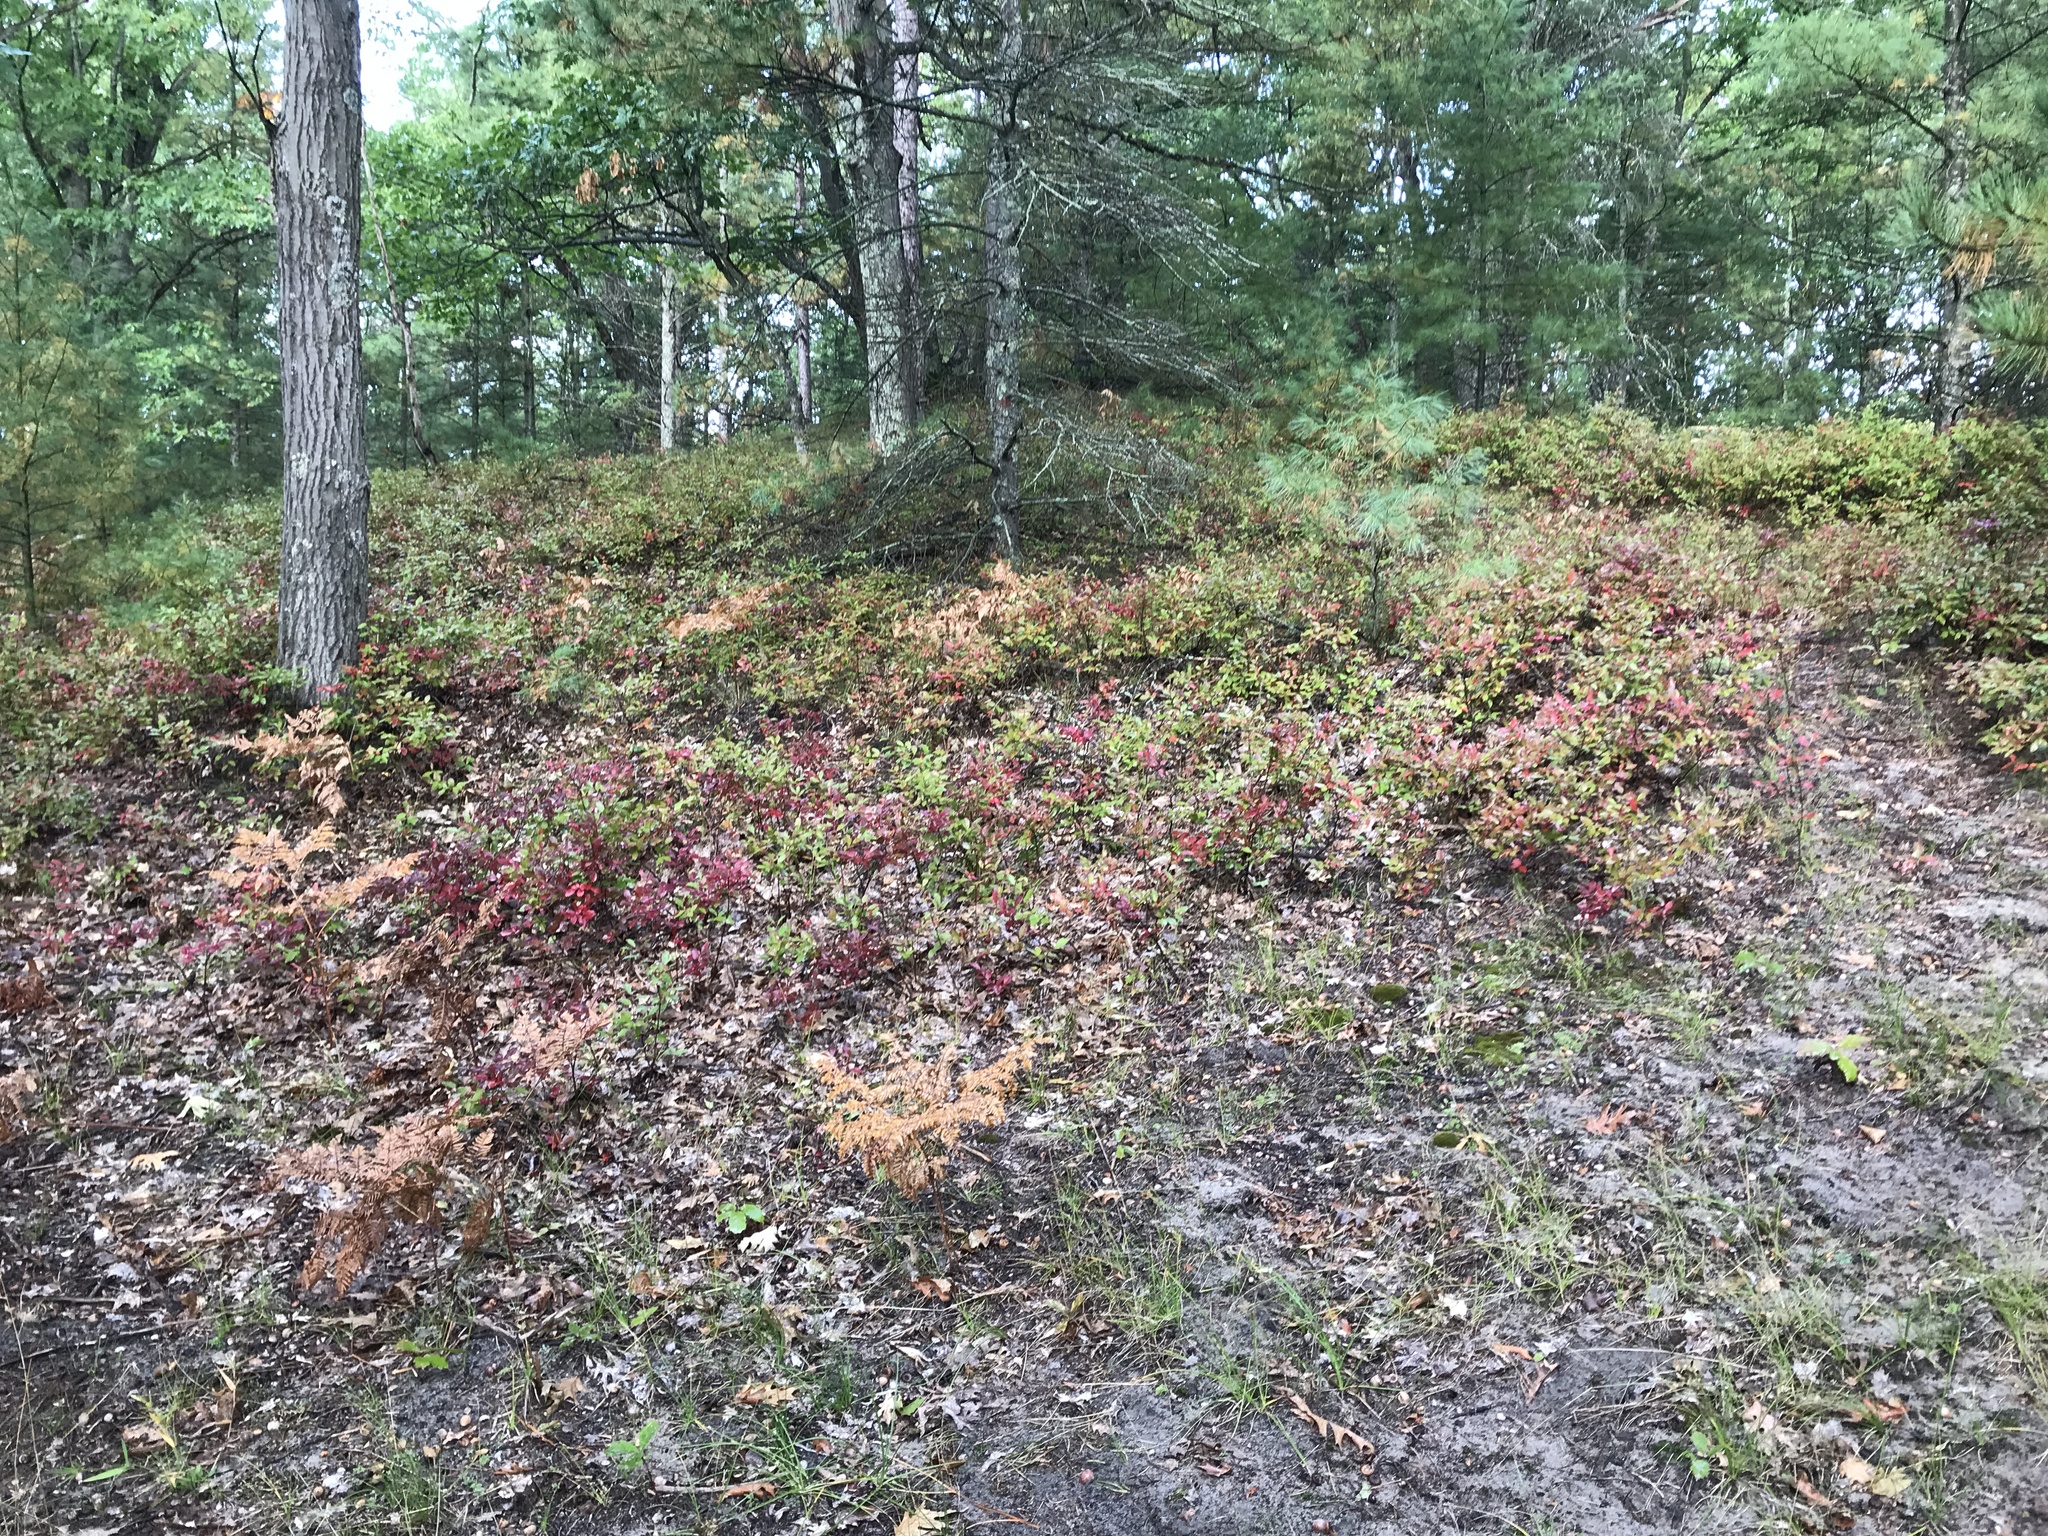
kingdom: Plantae
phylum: Tracheophyta
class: Magnoliopsida
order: Ericales
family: Ericaceae
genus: Gaylussacia
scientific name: Gaylussacia baccata
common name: Black huckleberry
